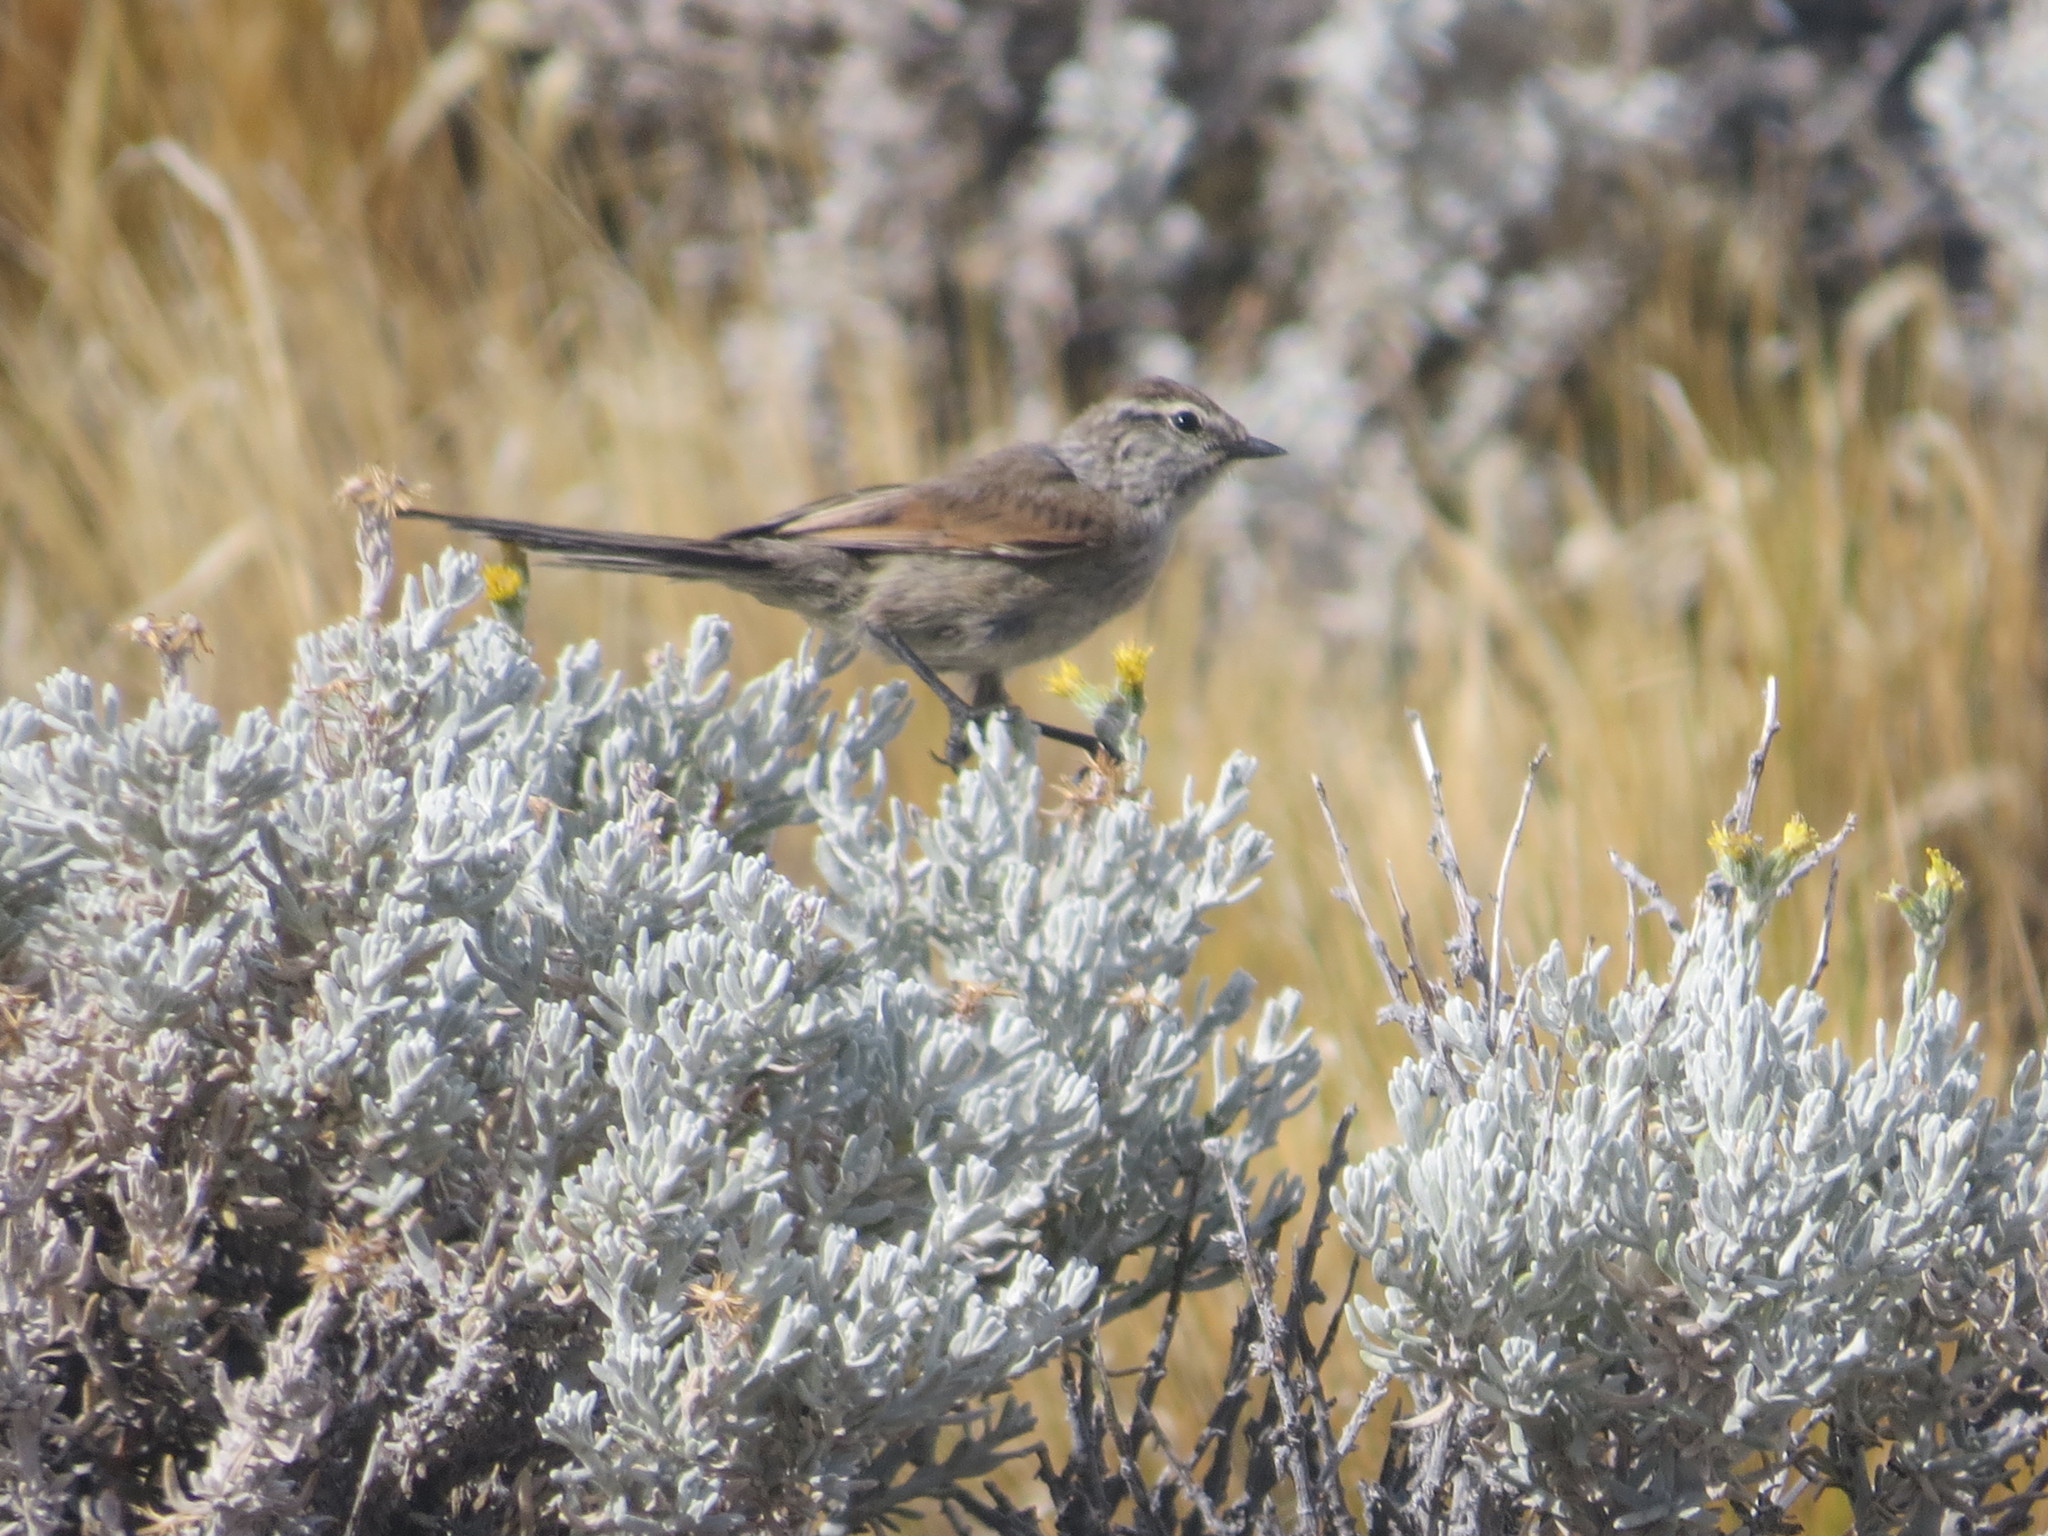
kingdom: Animalia
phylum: Chordata
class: Aves
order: Passeriformes
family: Furnariidae
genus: Leptasthenura
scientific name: Leptasthenura aegithaloides
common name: Plain-mantled tit-spinetail
